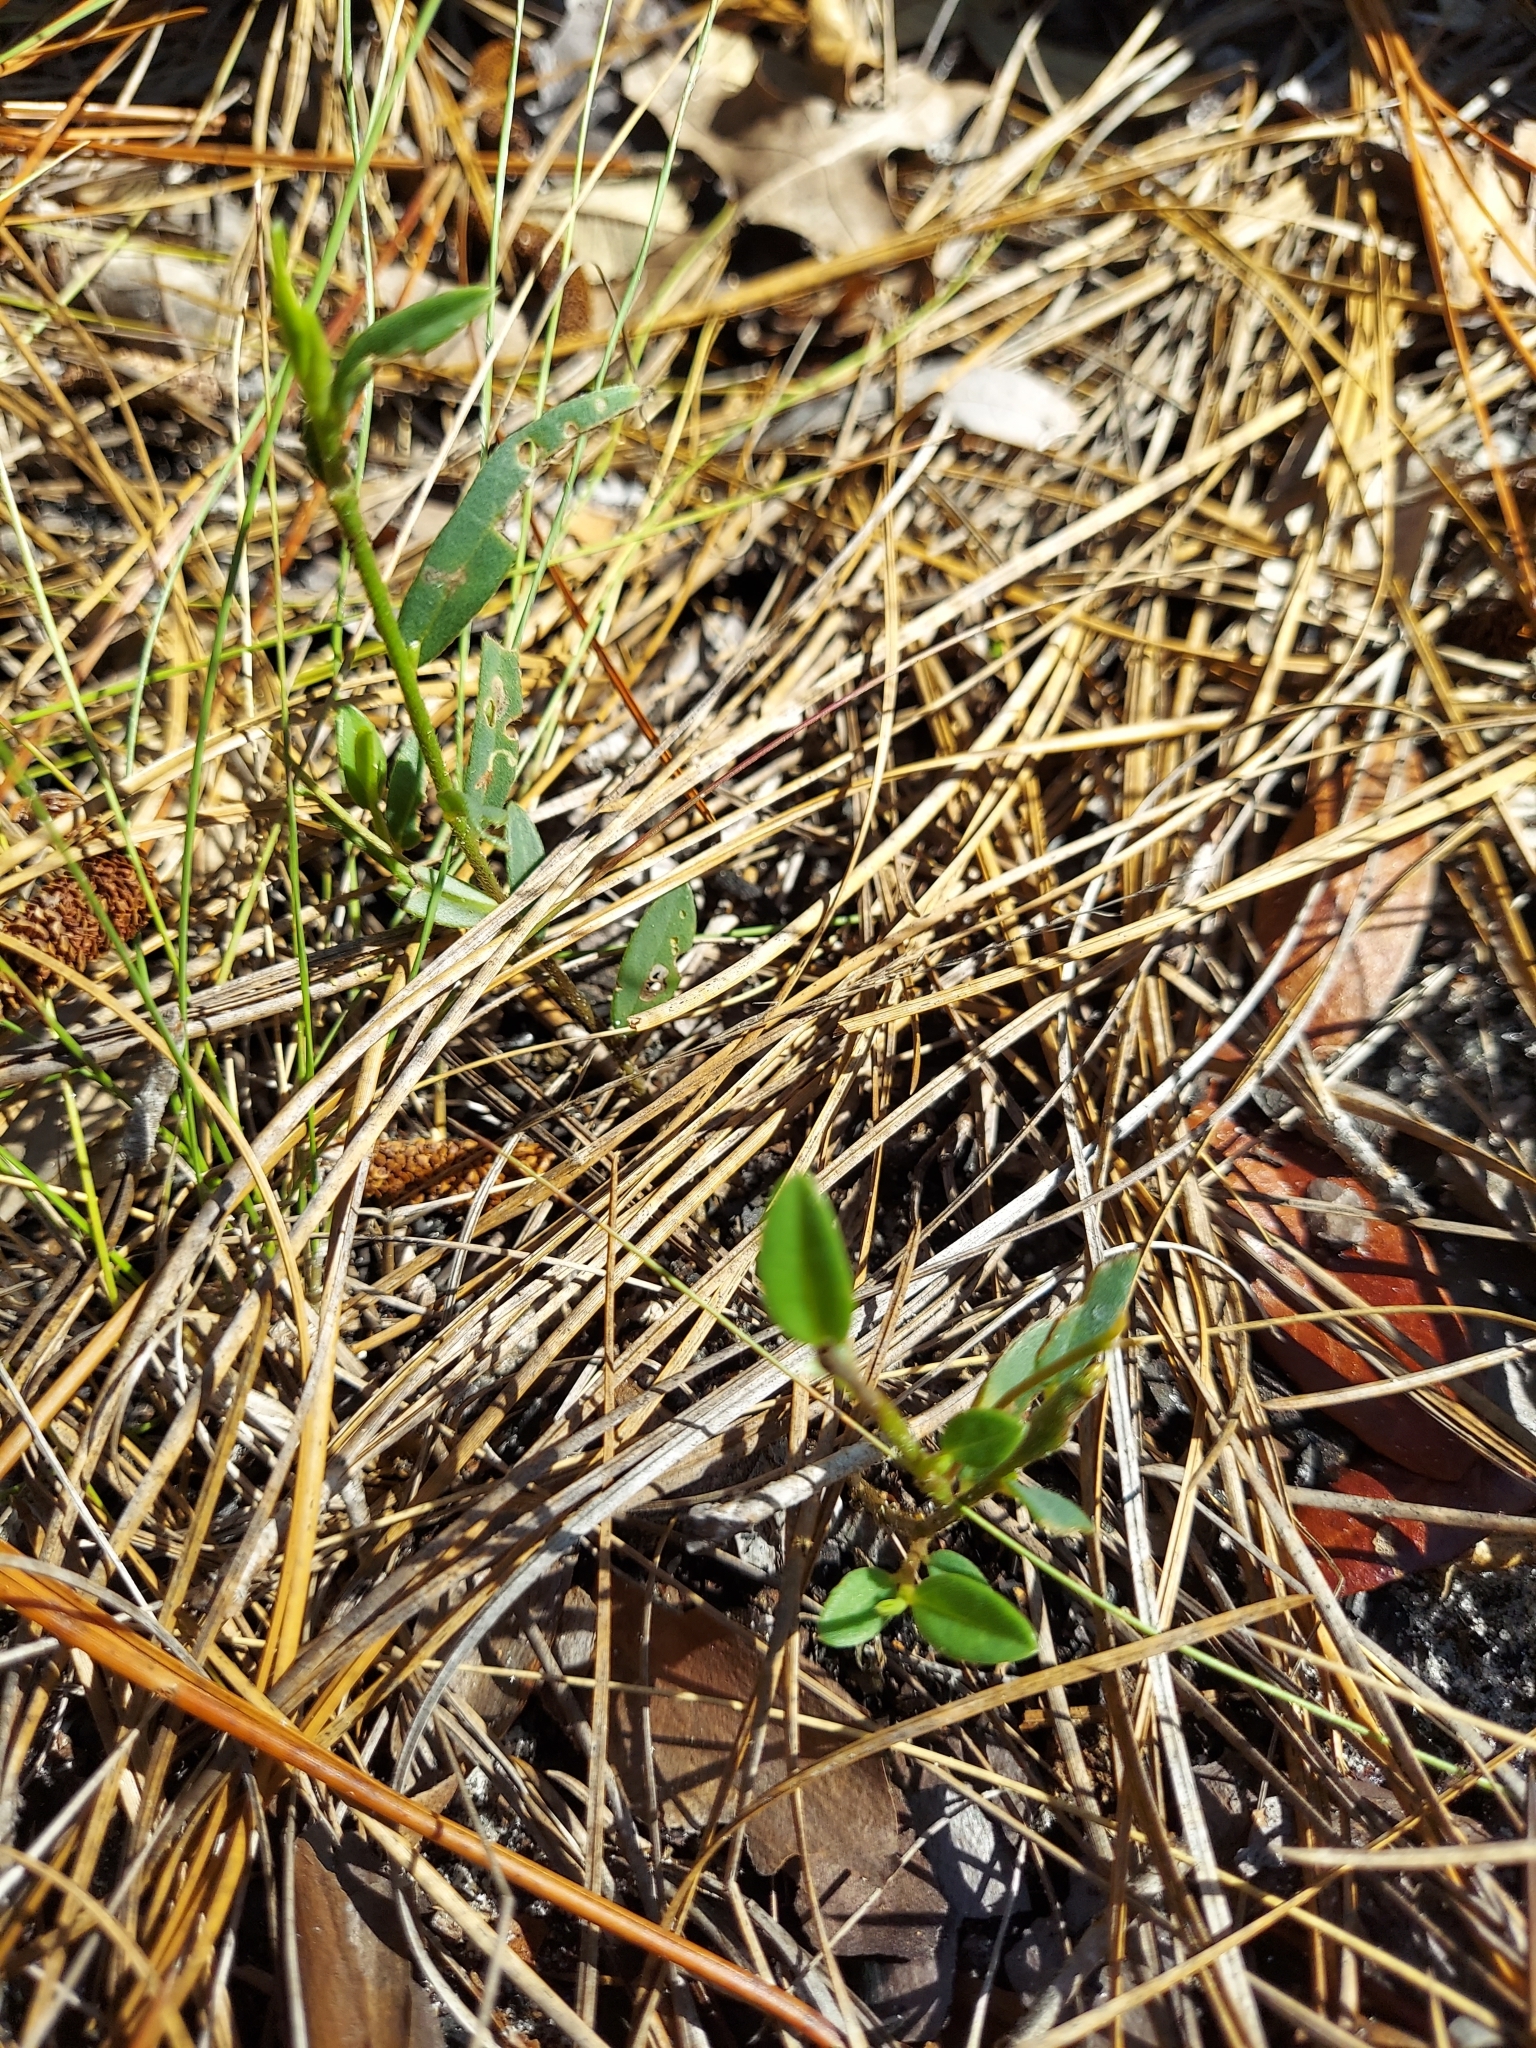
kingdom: Plantae
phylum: Tracheophyta
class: Magnoliopsida
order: Fabales
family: Fabaceae
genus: Crotalaria
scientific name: Crotalaria rotundifolia
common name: Prostrate rattlebox
